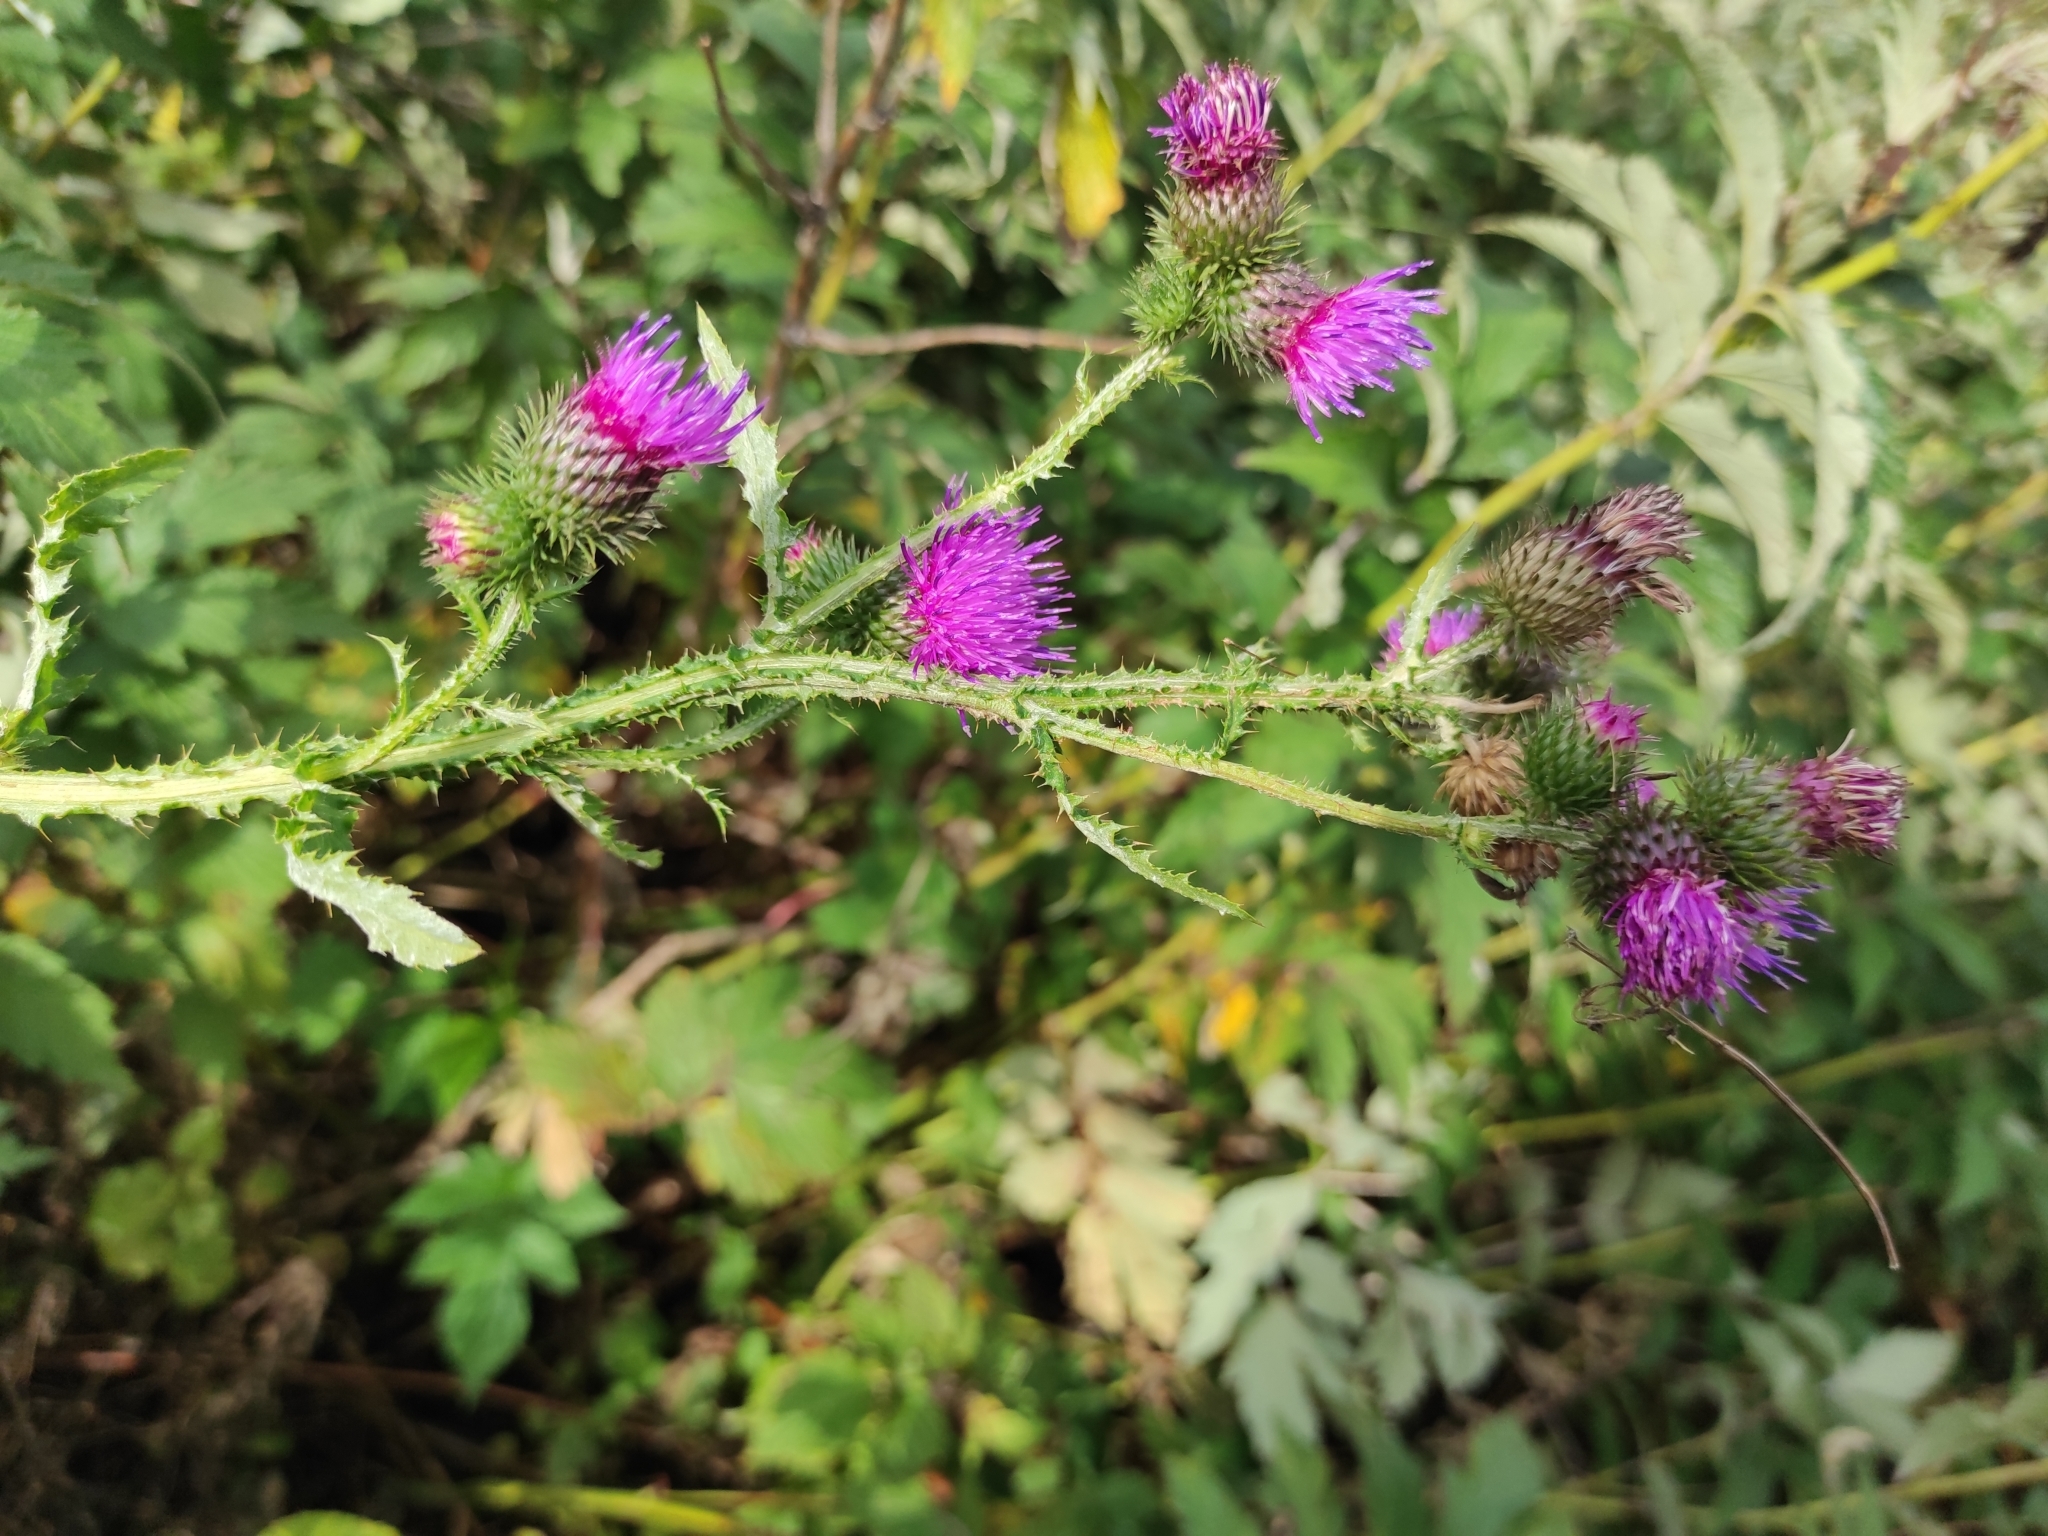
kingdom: Plantae
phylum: Tracheophyta
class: Magnoliopsida
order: Asterales
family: Asteraceae
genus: Carduus
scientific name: Carduus crispus
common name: Welted thistle
